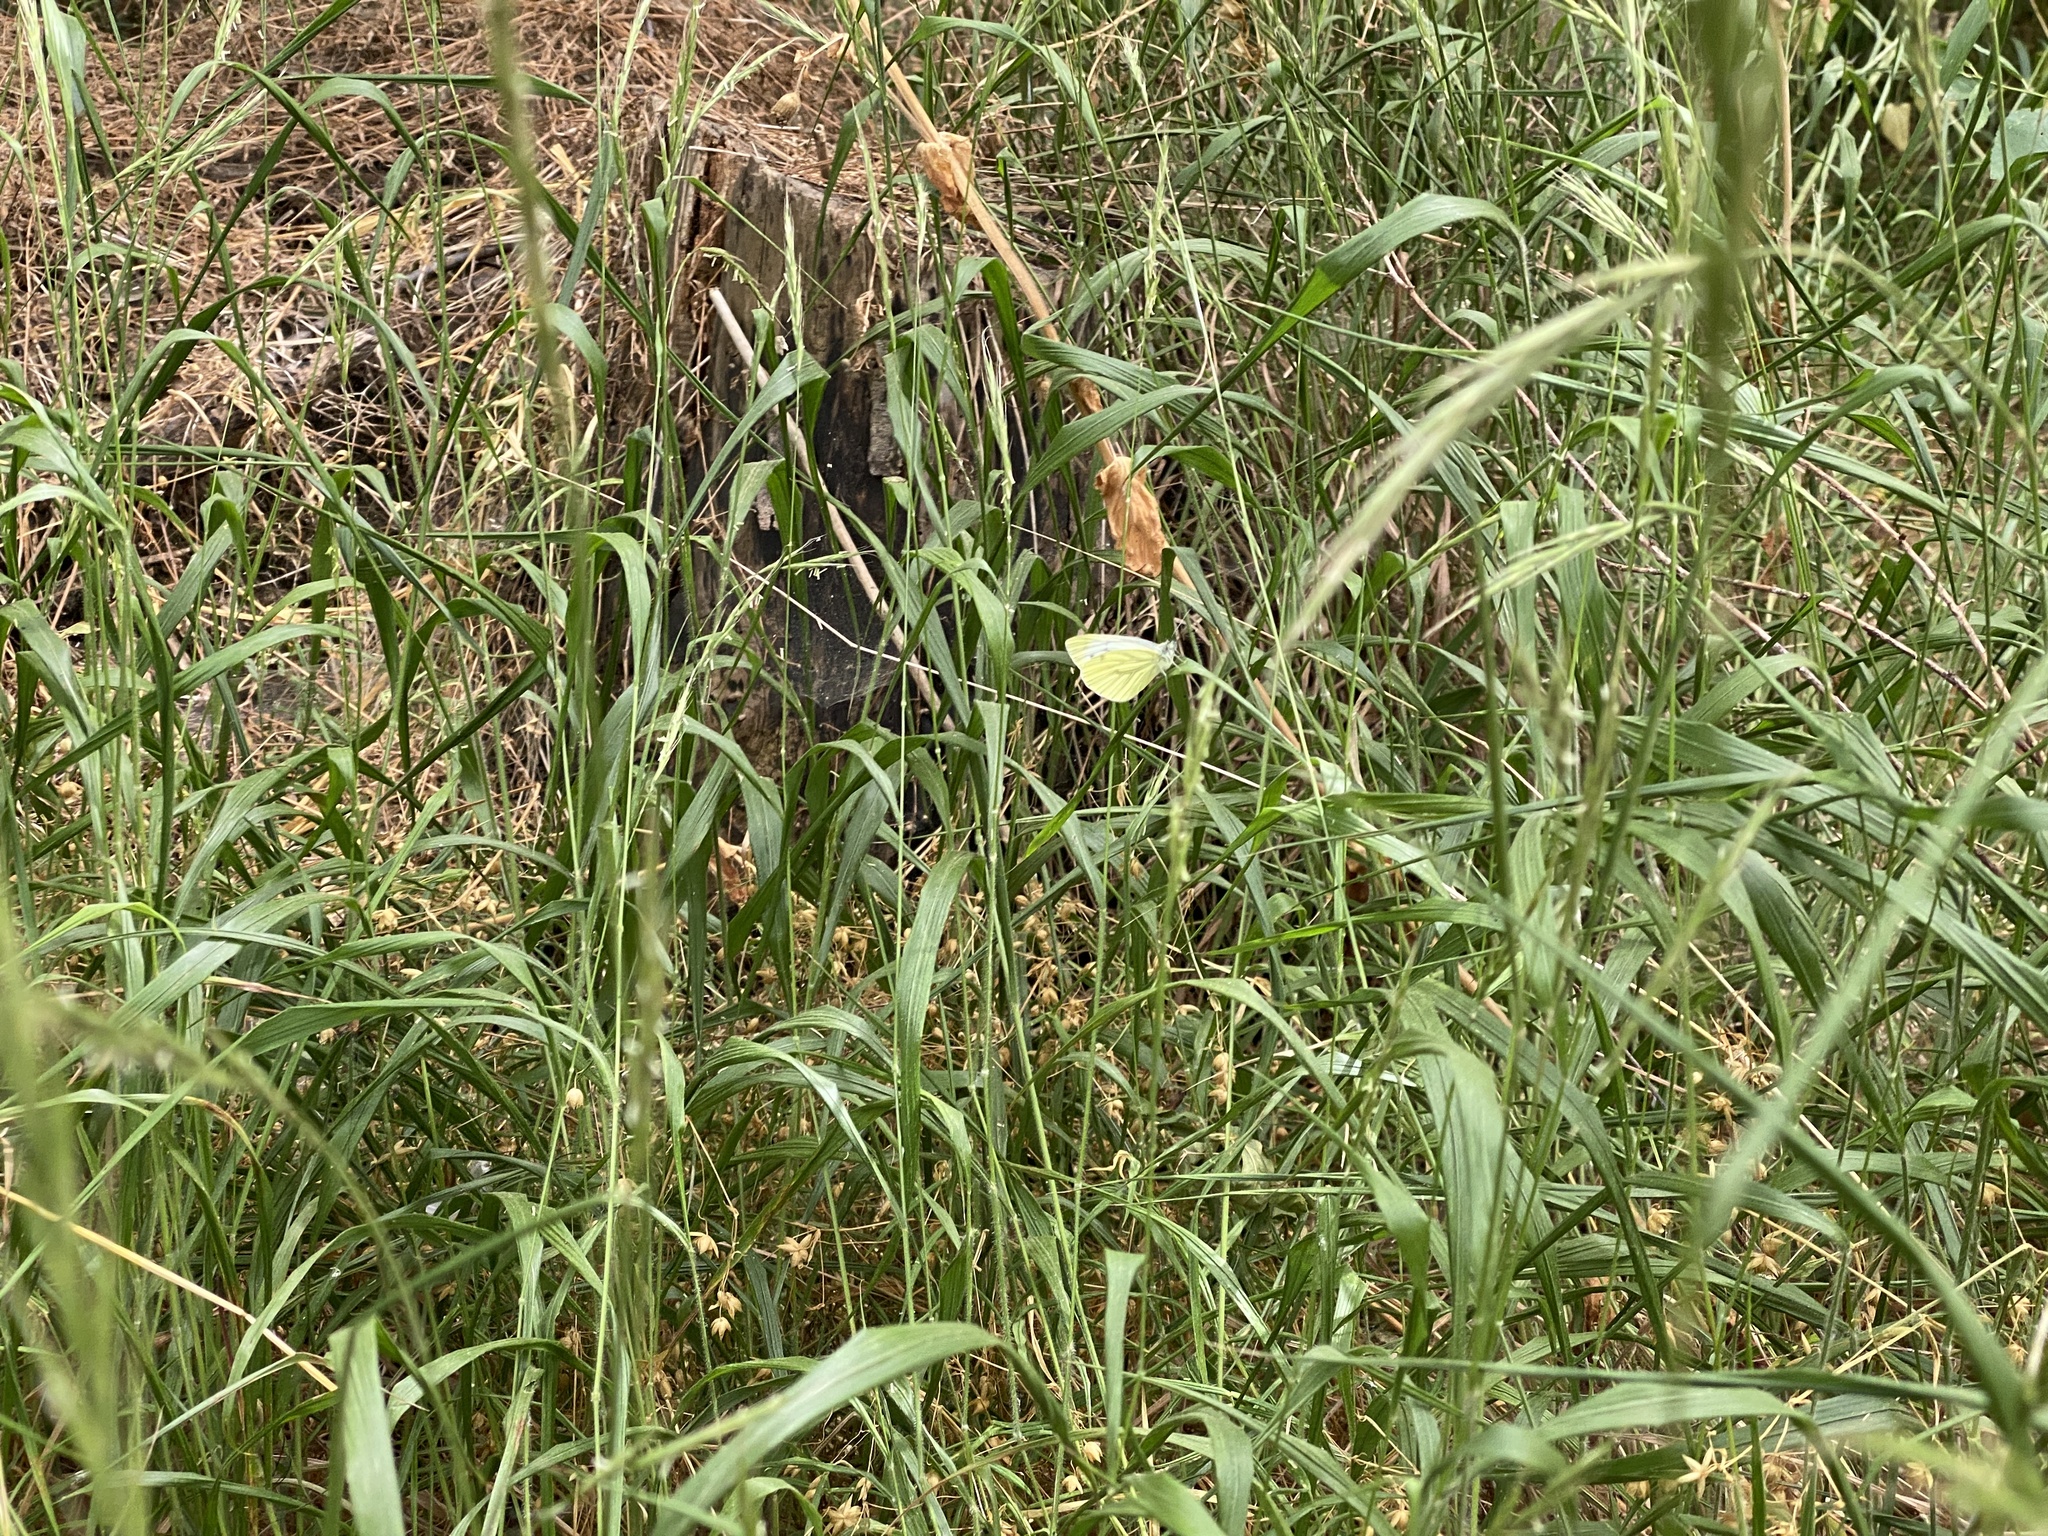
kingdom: Animalia
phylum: Arthropoda
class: Insecta
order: Lepidoptera
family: Pieridae
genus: Pieris
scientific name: Pieris napi
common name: Green-veined white
